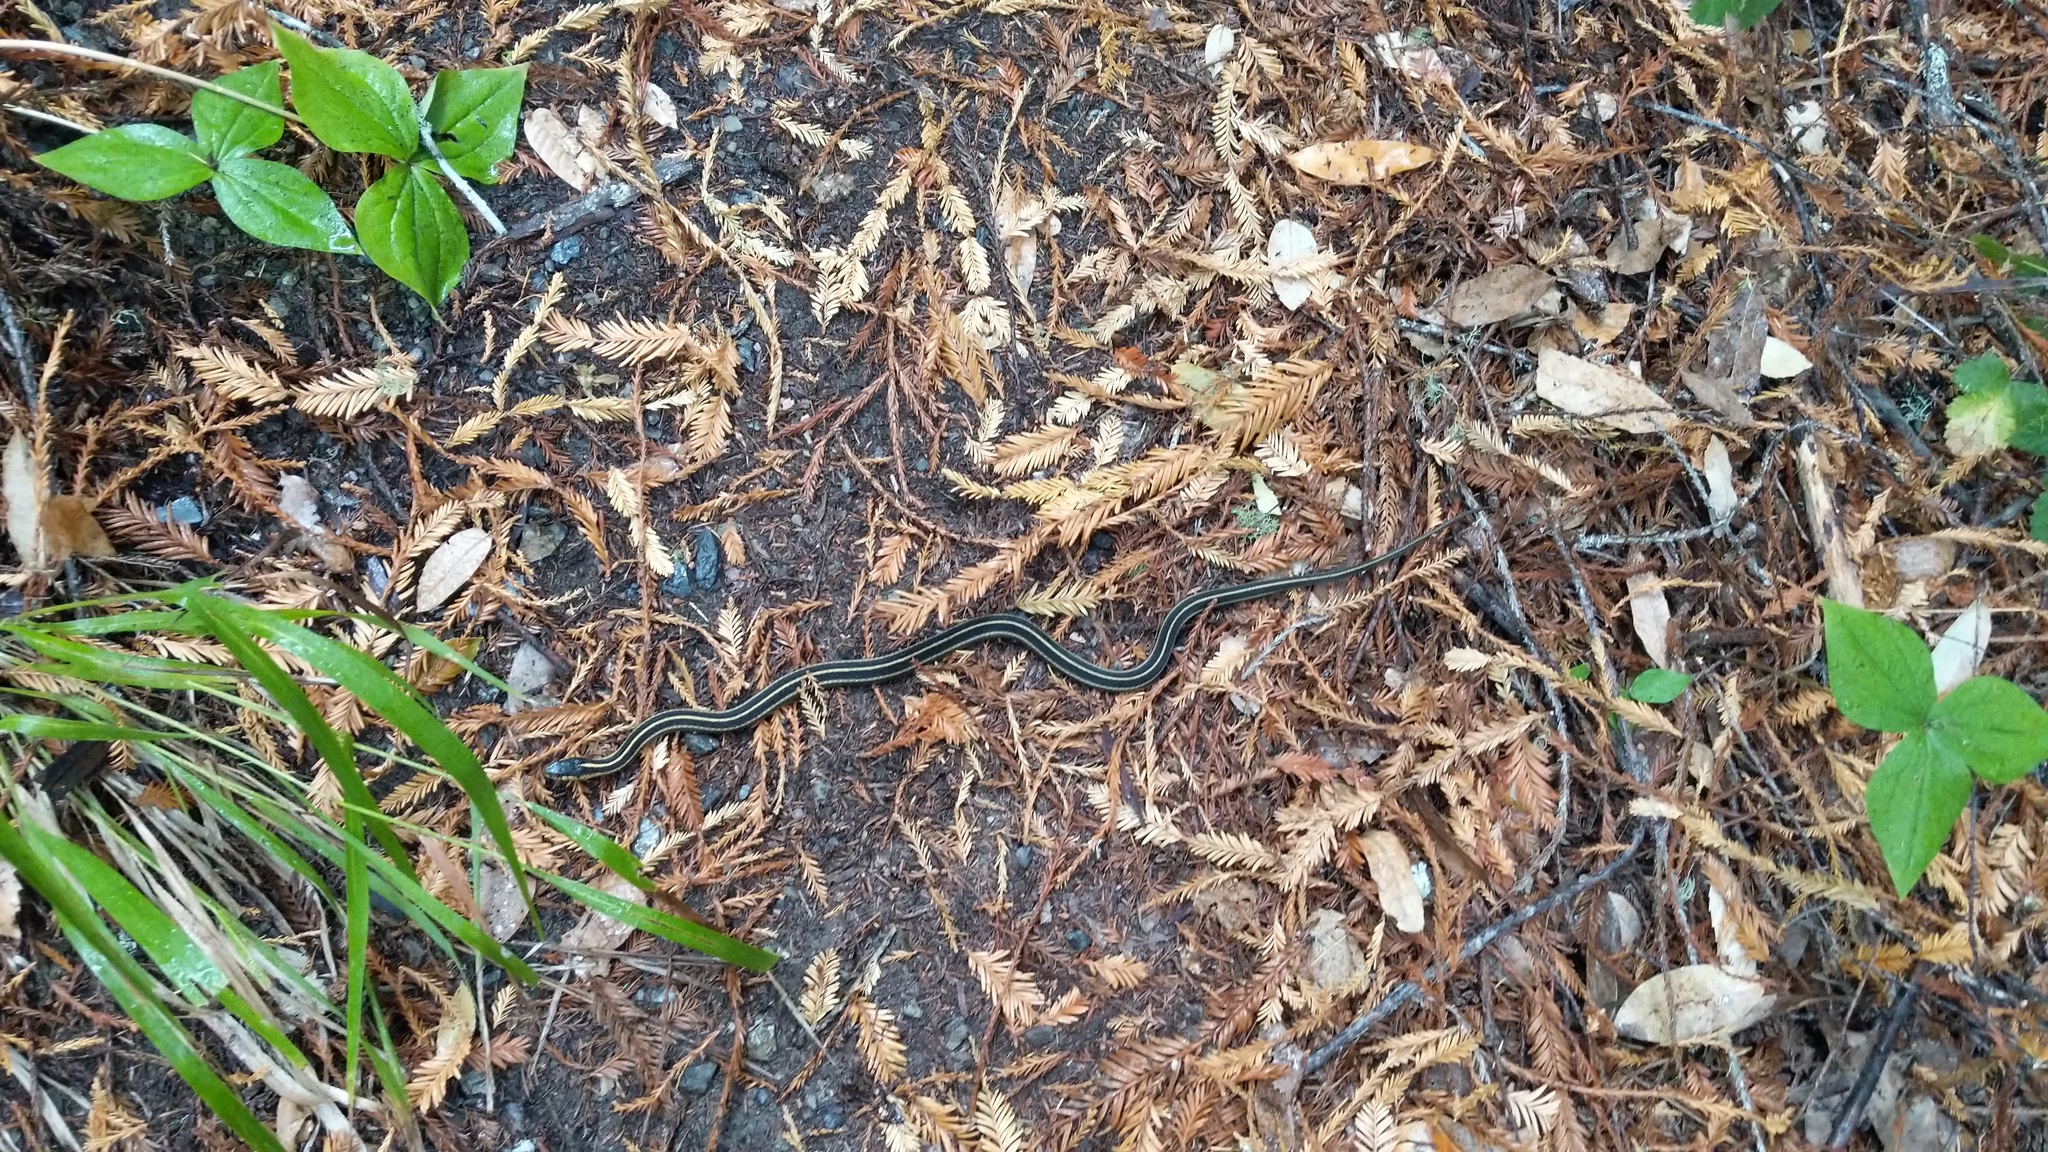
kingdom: Animalia
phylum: Chordata
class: Squamata
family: Colubridae
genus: Thamnophis
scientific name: Thamnophis elegans
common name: Western terrestrial garter snake
